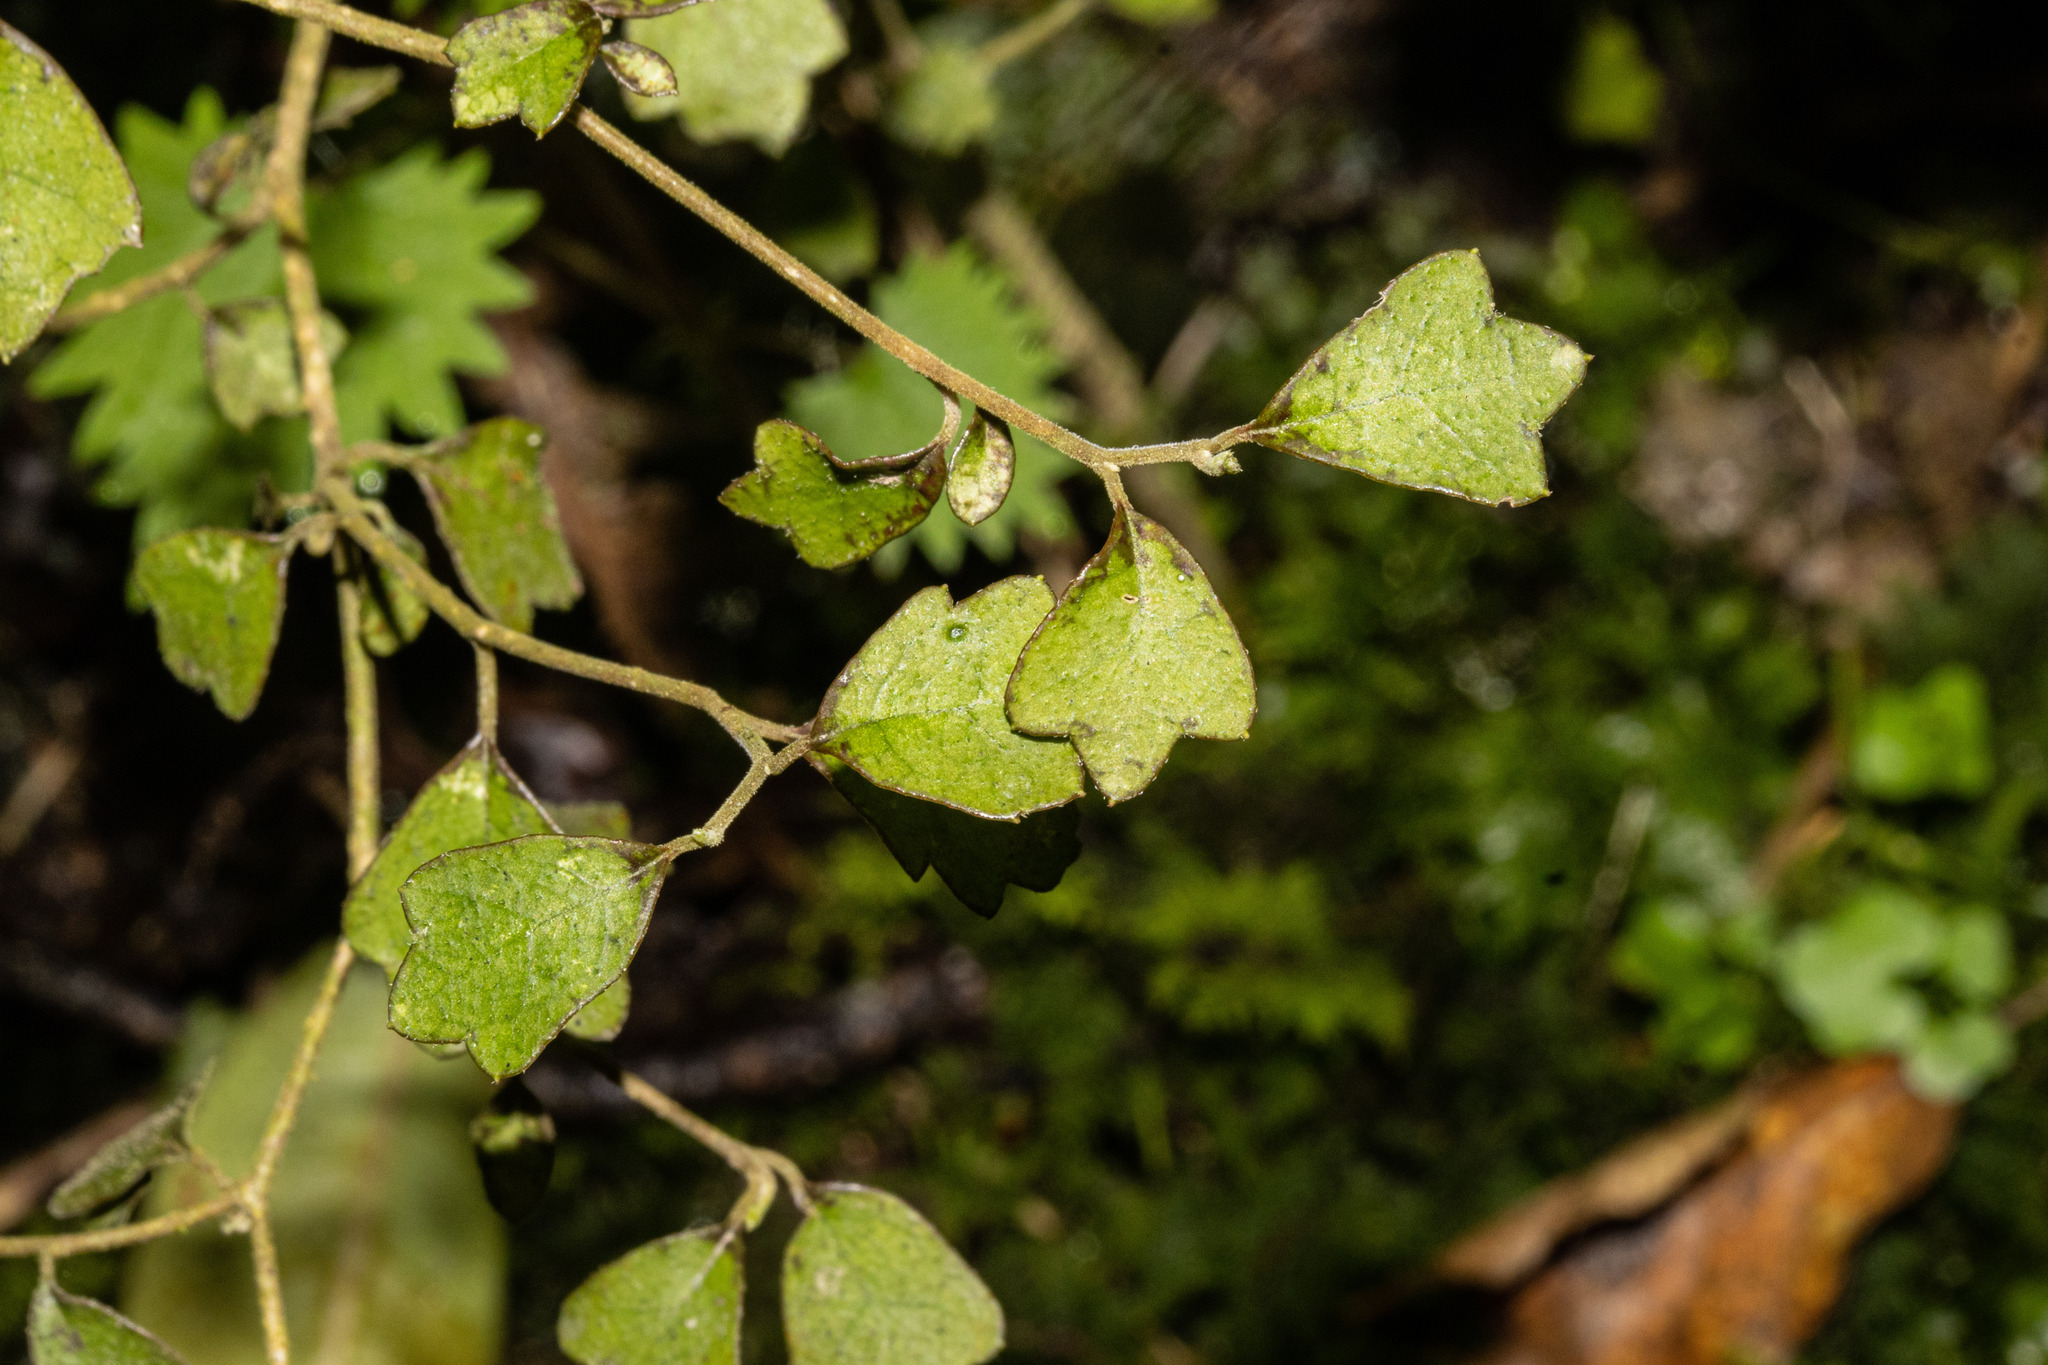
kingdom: Plantae
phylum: Tracheophyta
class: Magnoliopsida
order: Apiales
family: Pennantiaceae
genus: Pennantia
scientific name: Pennantia corymbosa
